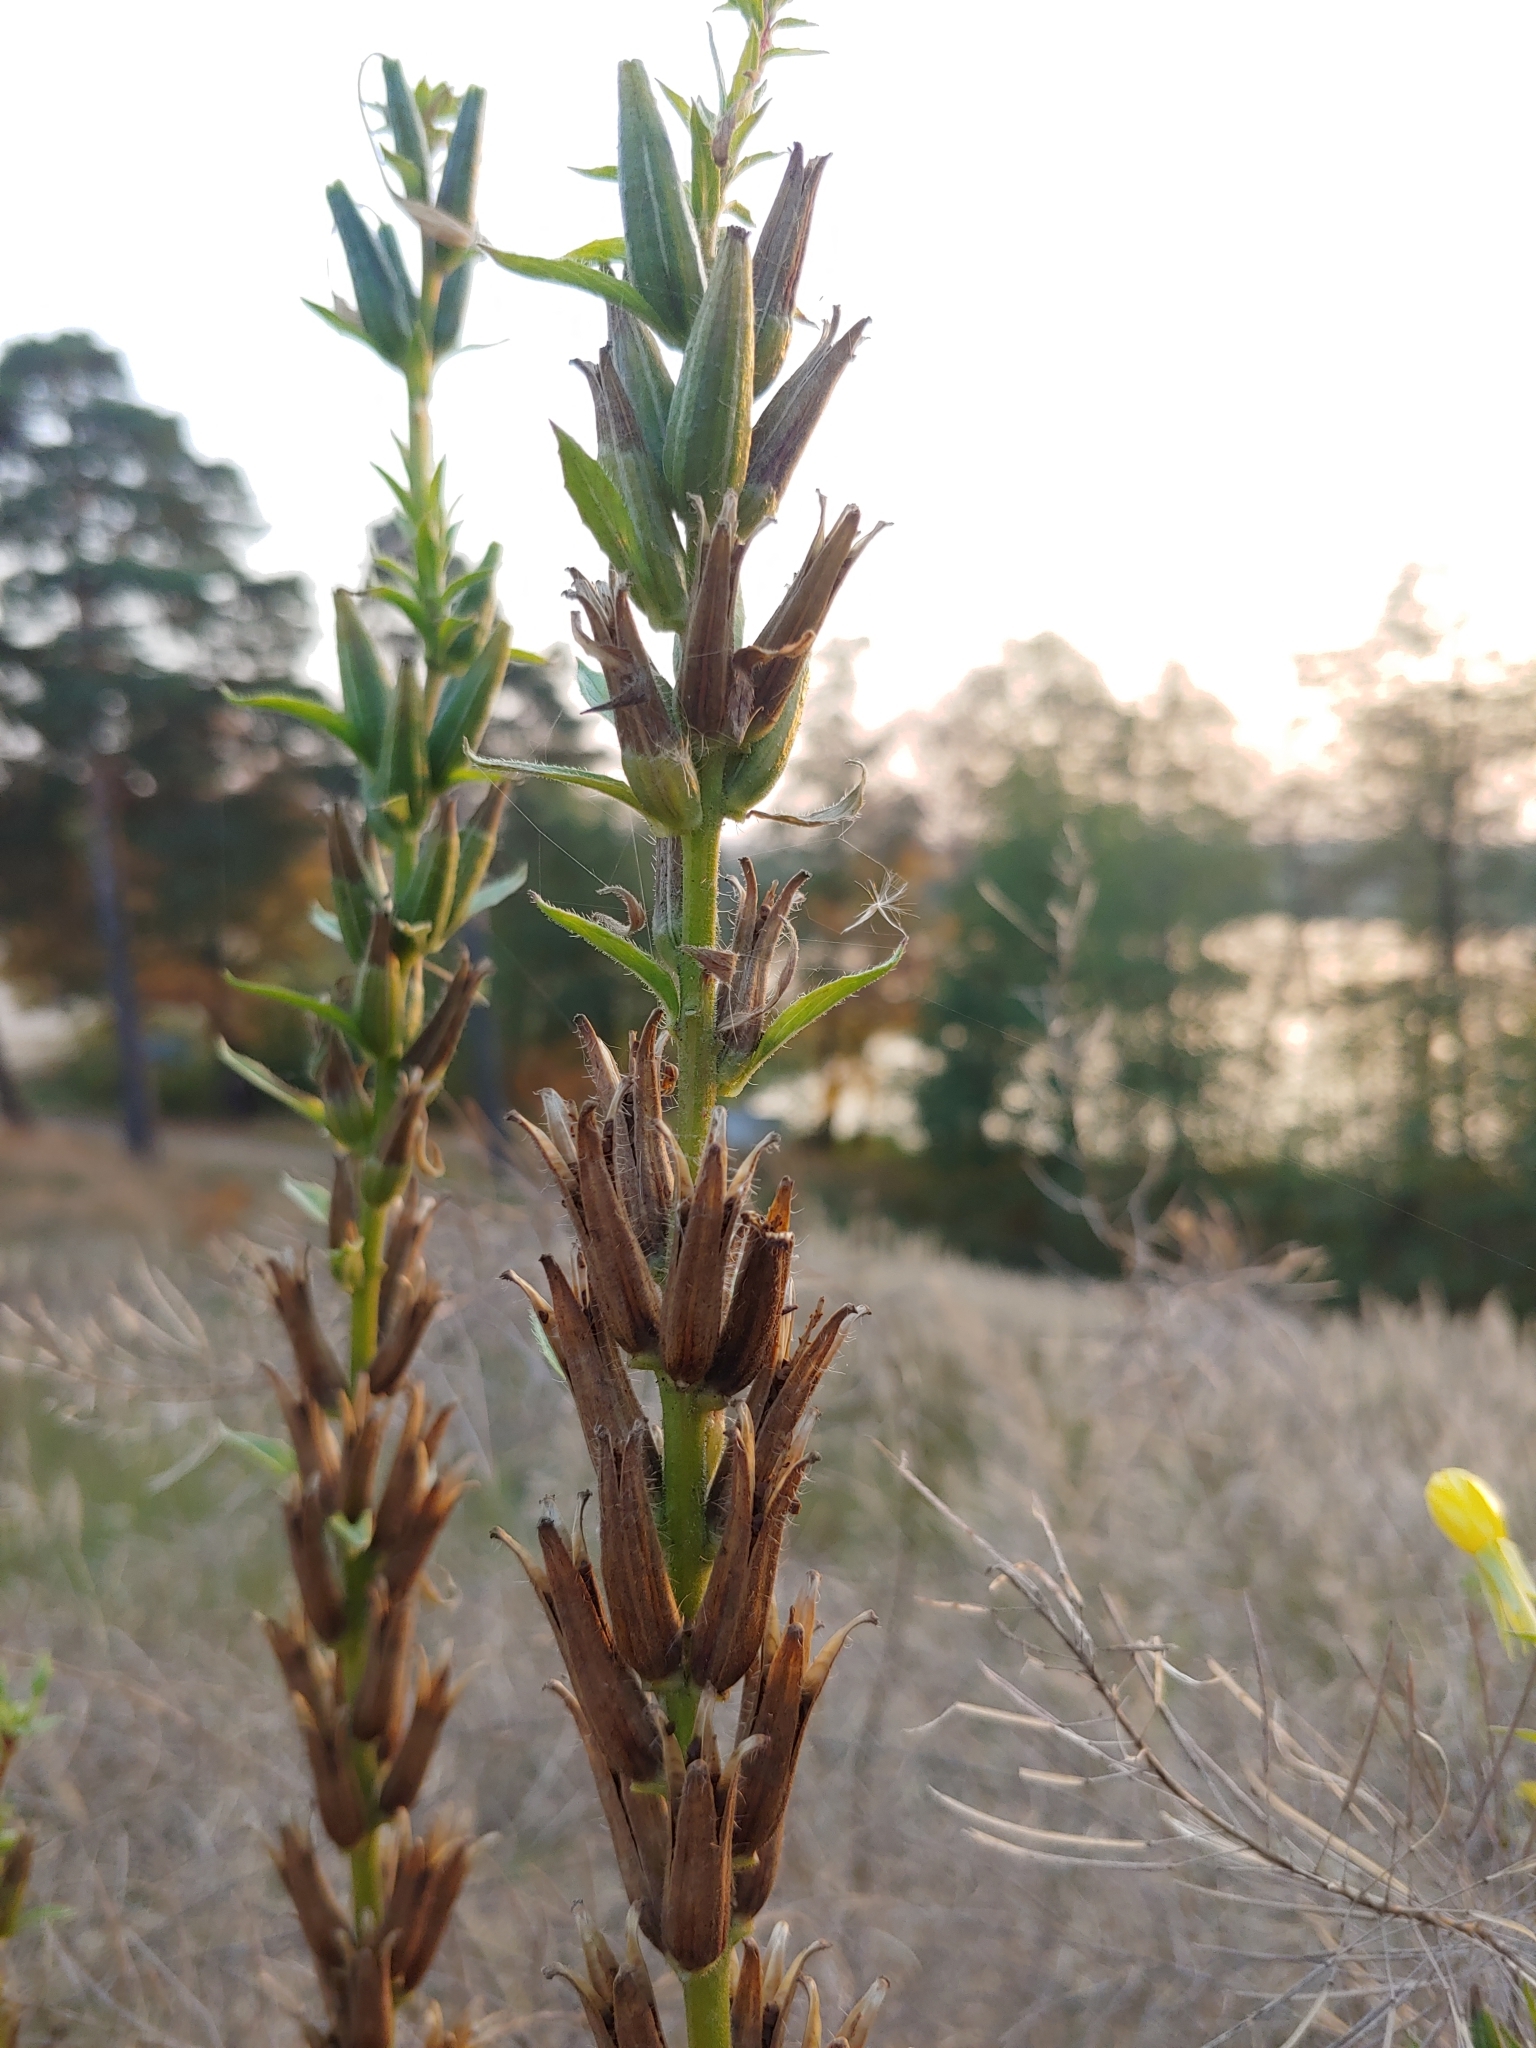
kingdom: Plantae
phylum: Tracheophyta
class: Magnoliopsida
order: Myrtales
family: Onagraceae
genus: Oenothera
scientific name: Oenothera rubricaulis
